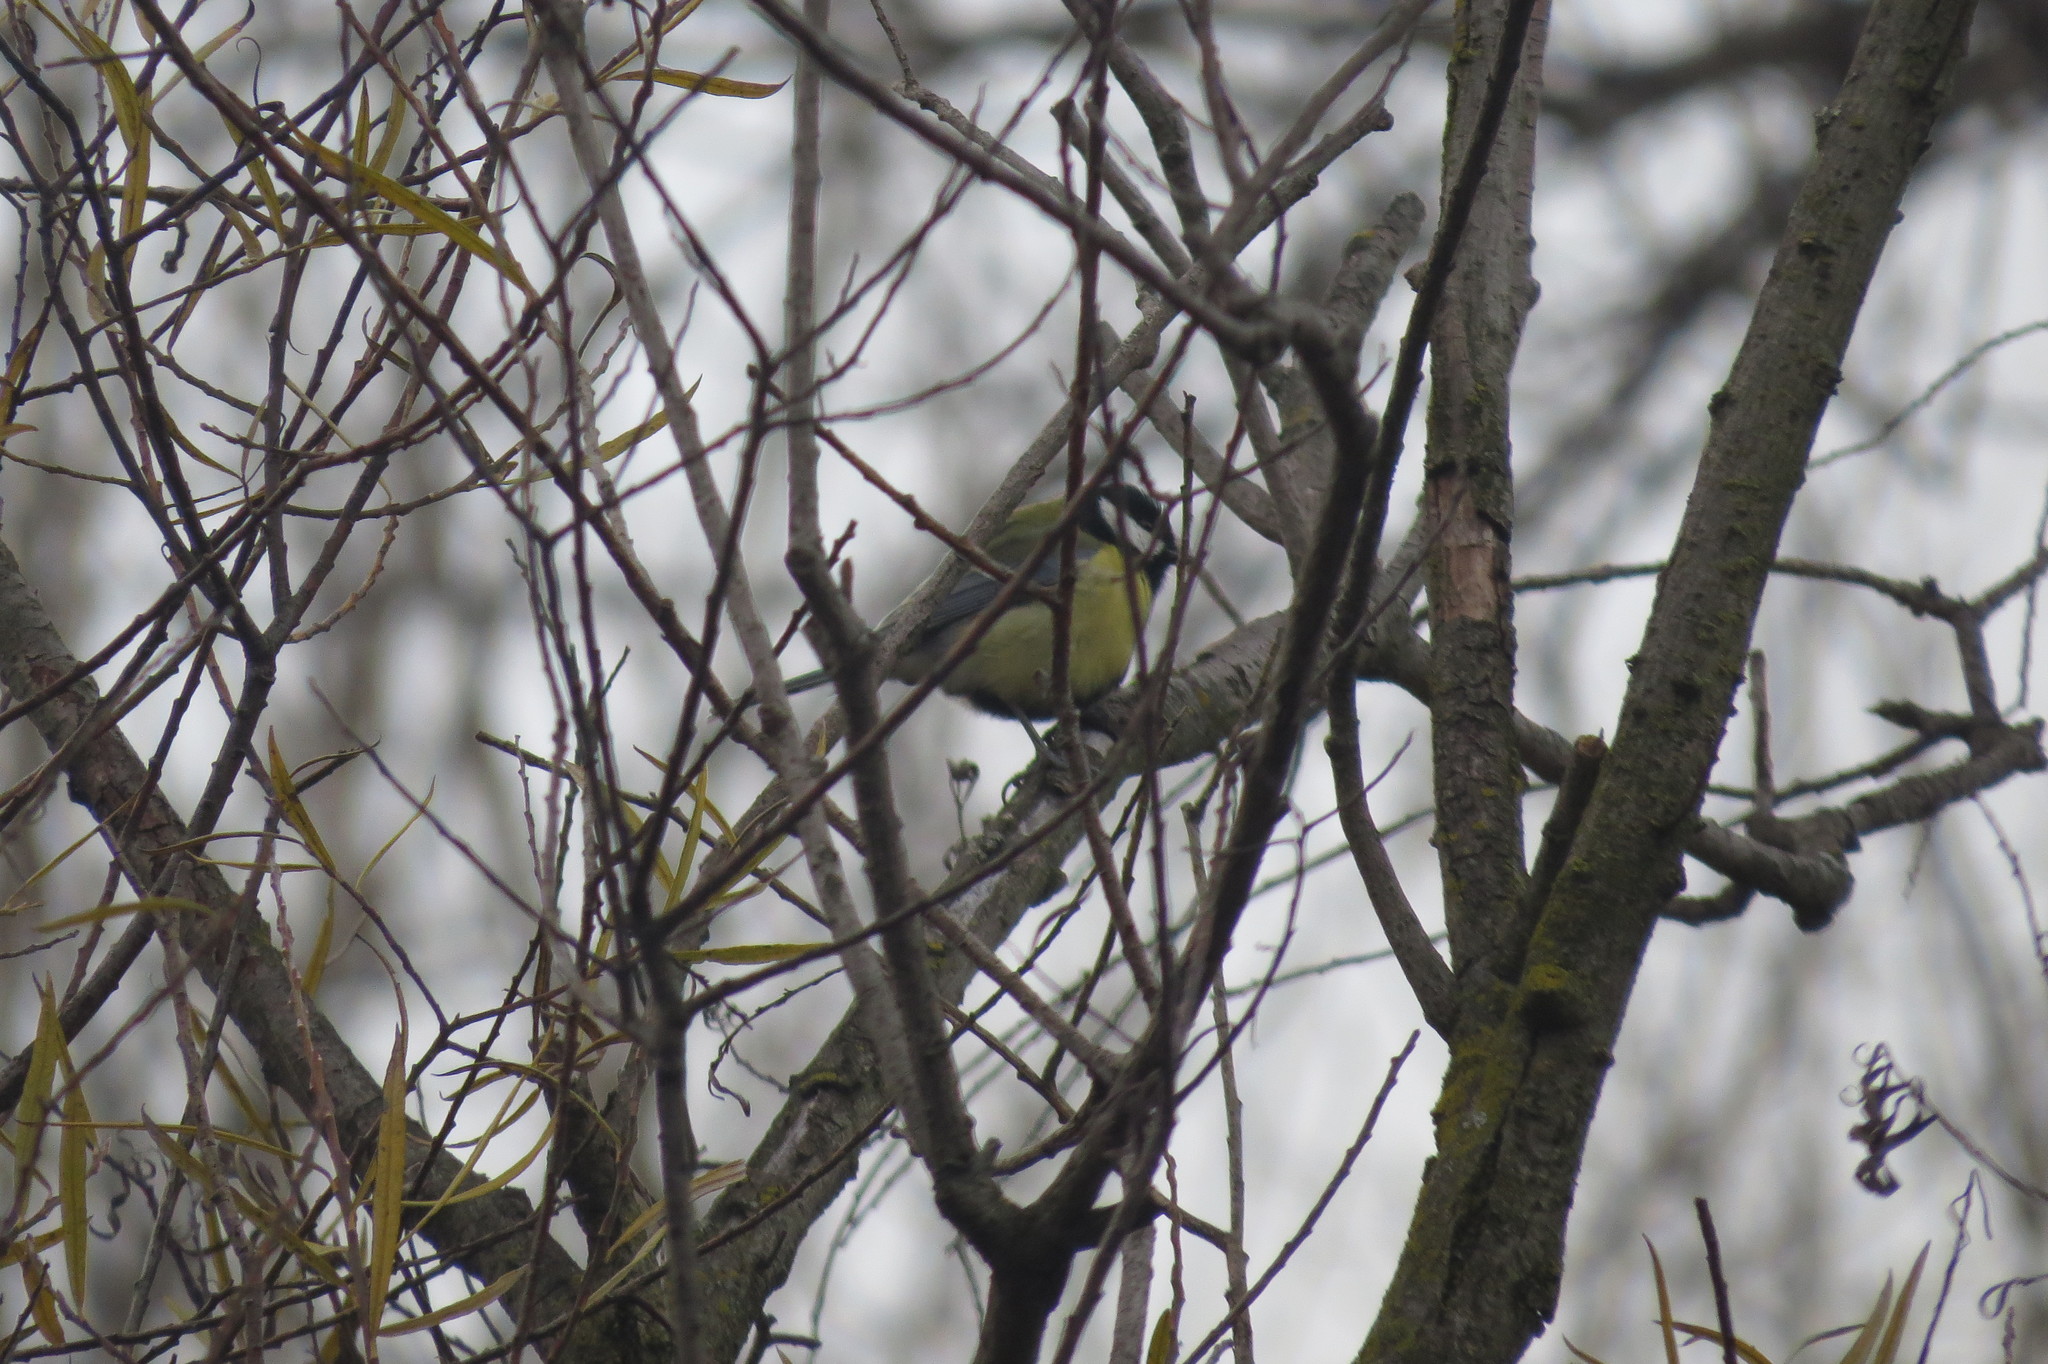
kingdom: Animalia
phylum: Chordata
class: Aves
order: Passeriformes
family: Paridae
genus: Parus
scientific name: Parus major
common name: Great tit
